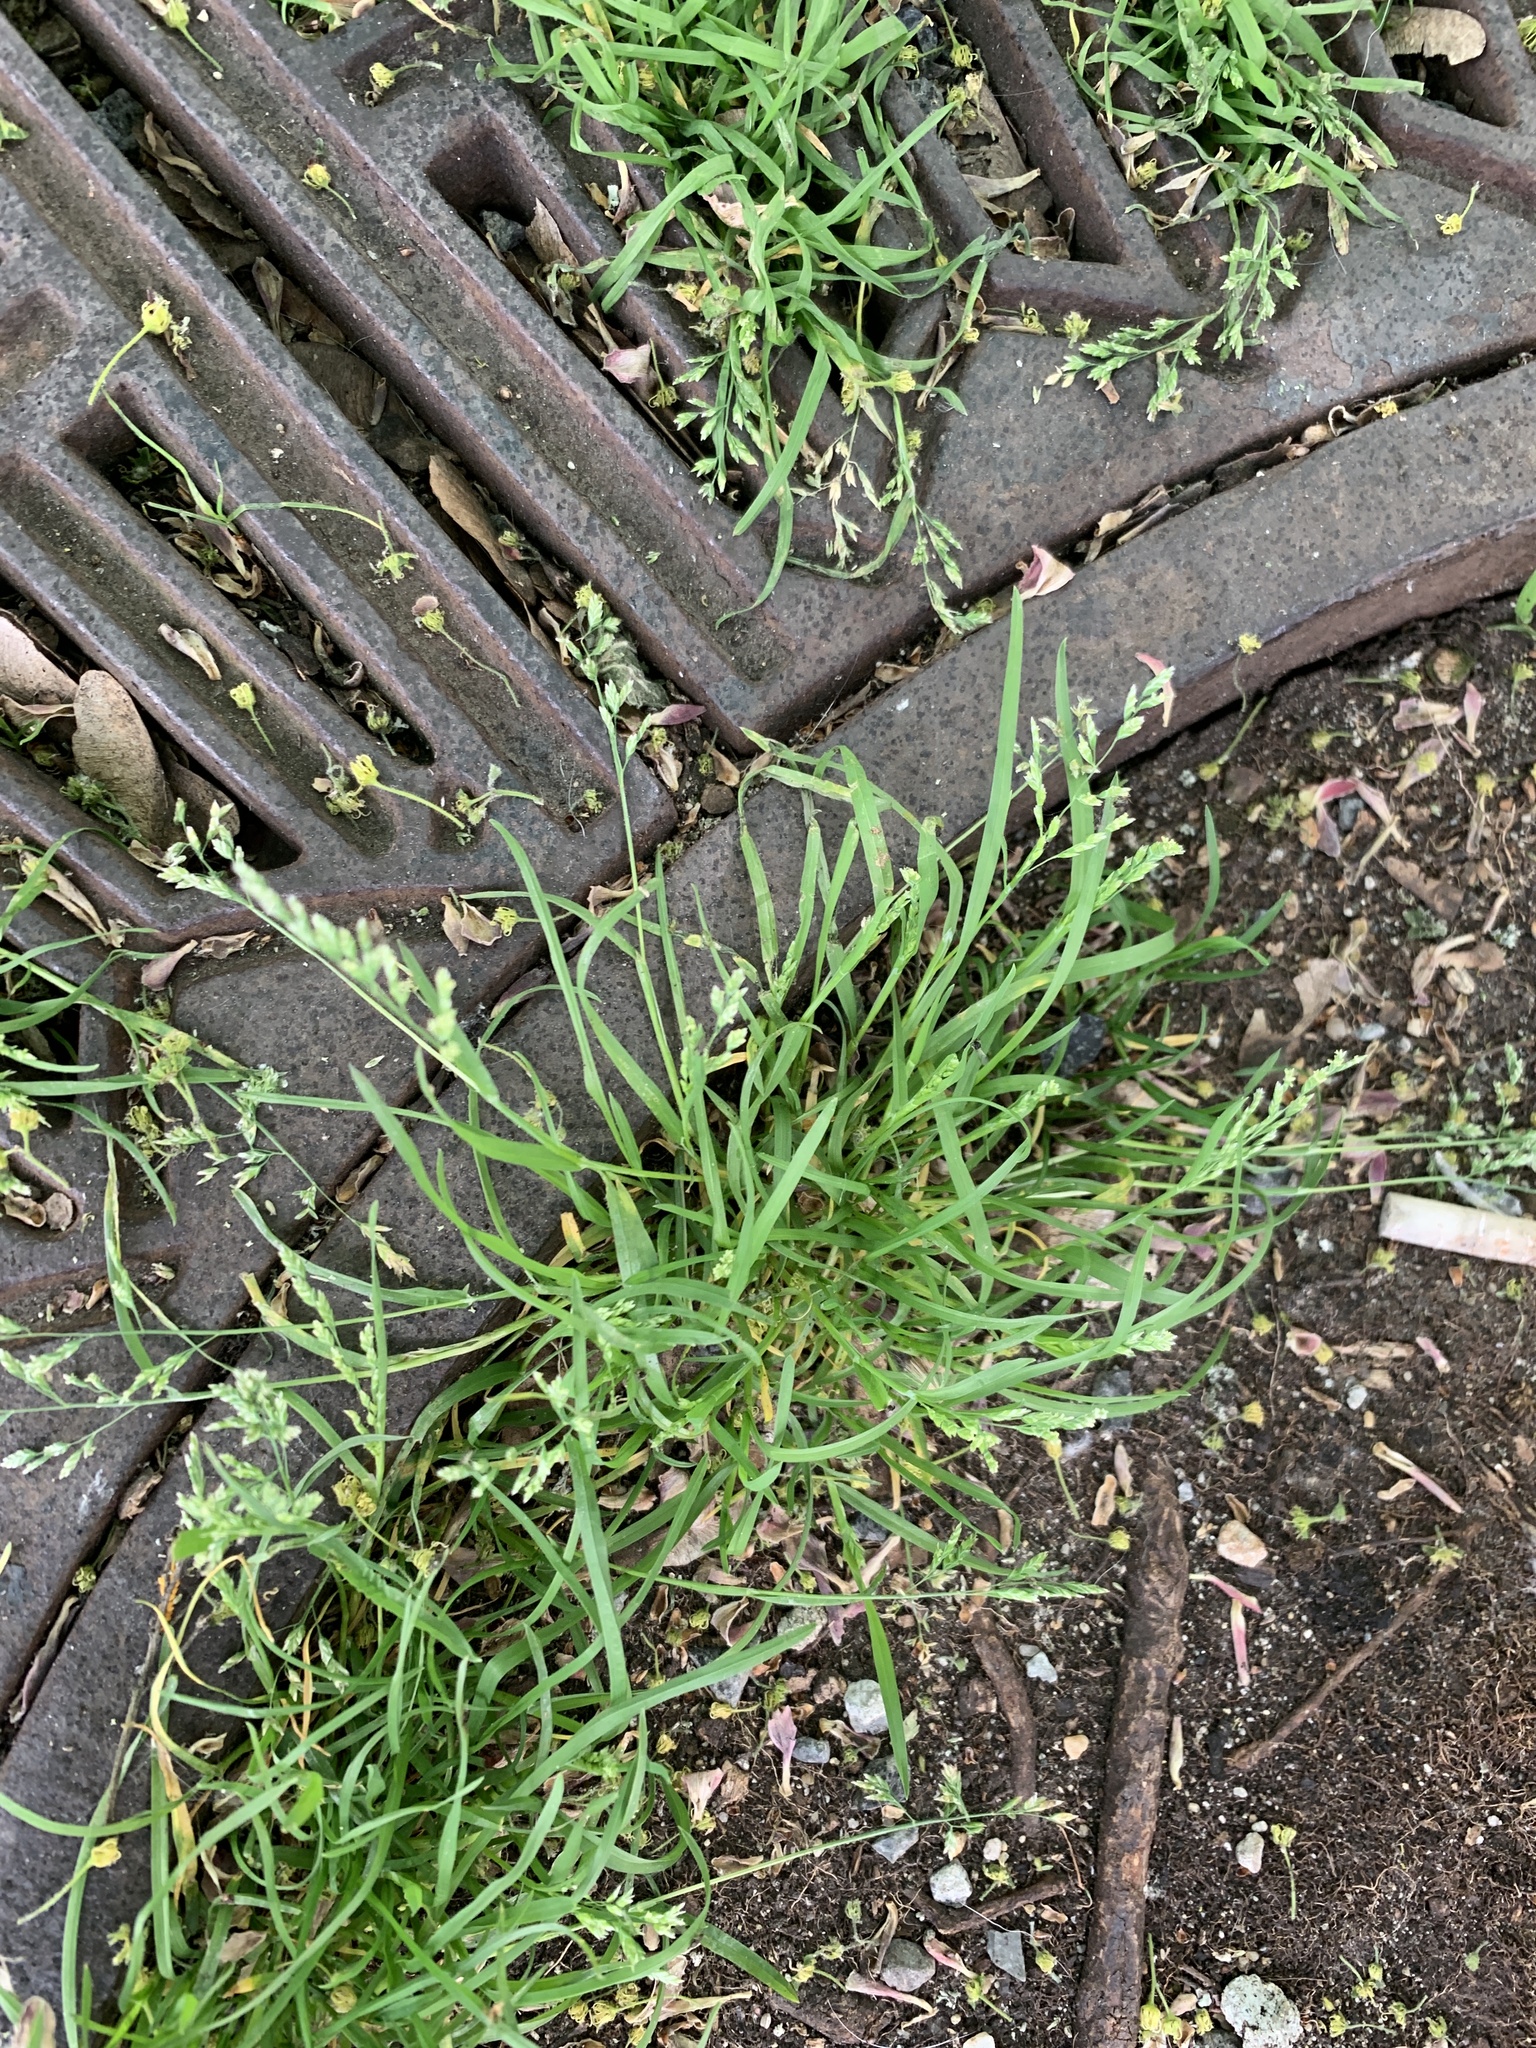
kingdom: Plantae
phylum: Tracheophyta
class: Liliopsida
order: Poales
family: Poaceae
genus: Poa
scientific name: Poa annua
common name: Annual bluegrass
